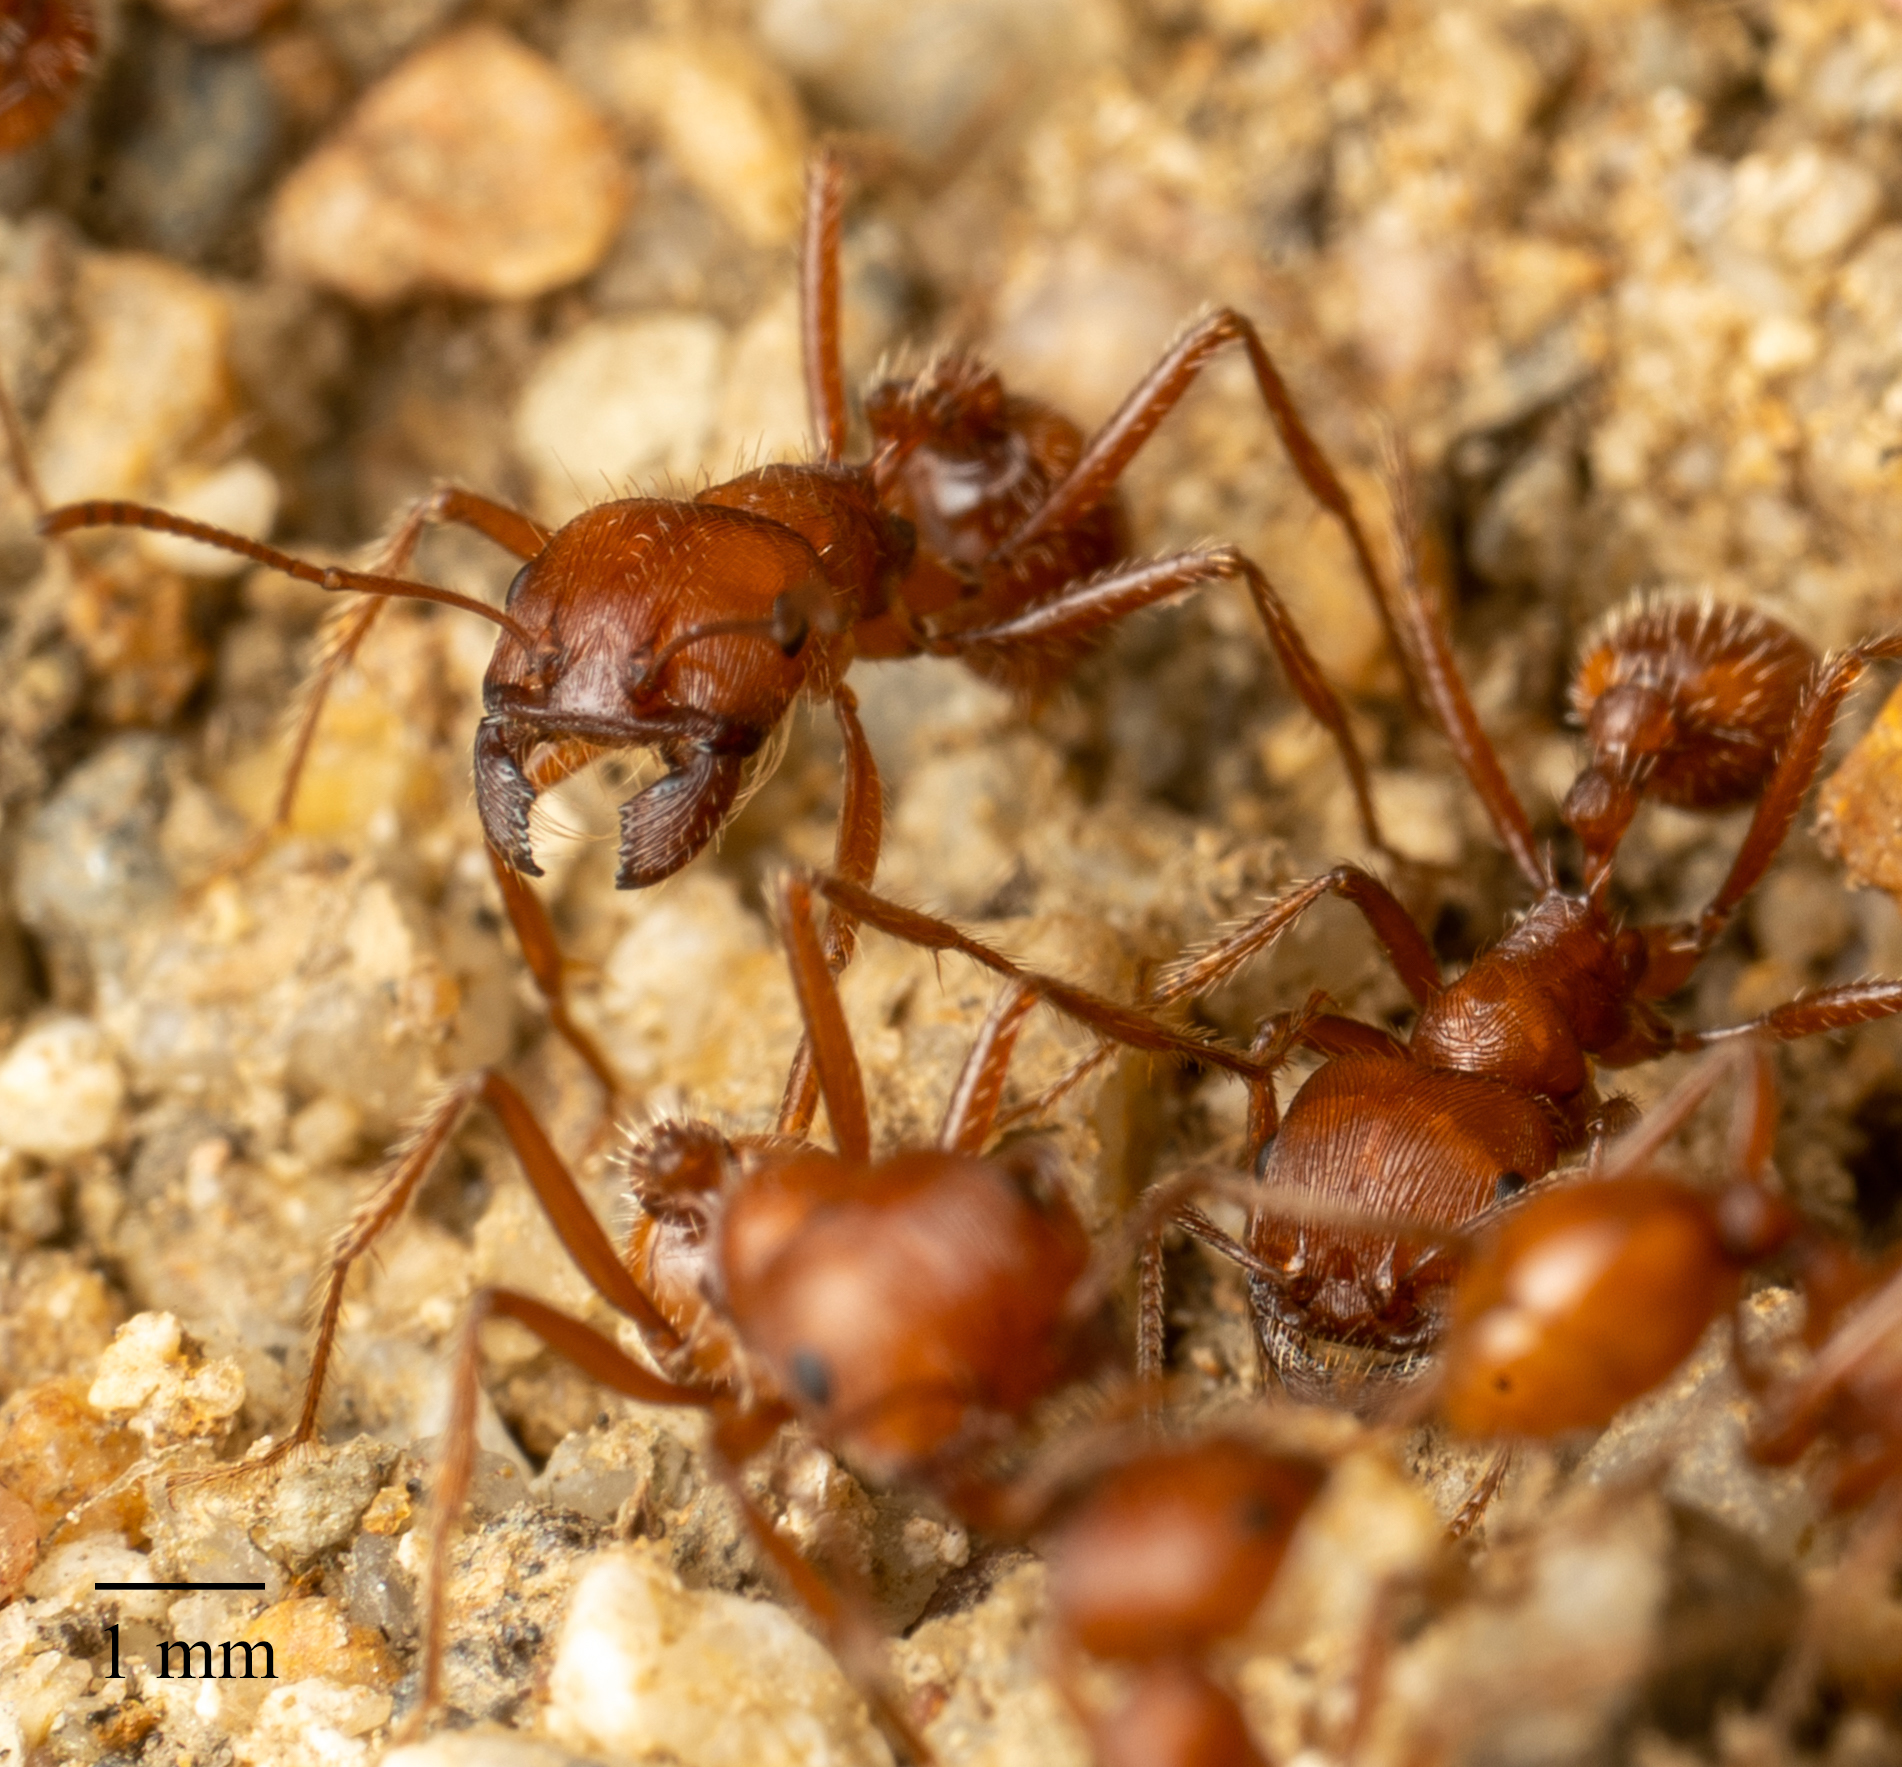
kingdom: Animalia
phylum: Arthropoda
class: Insecta
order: Hymenoptera
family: Formicidae
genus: Pogonomyrmex
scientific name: Pogonomyrmex subnitidus
